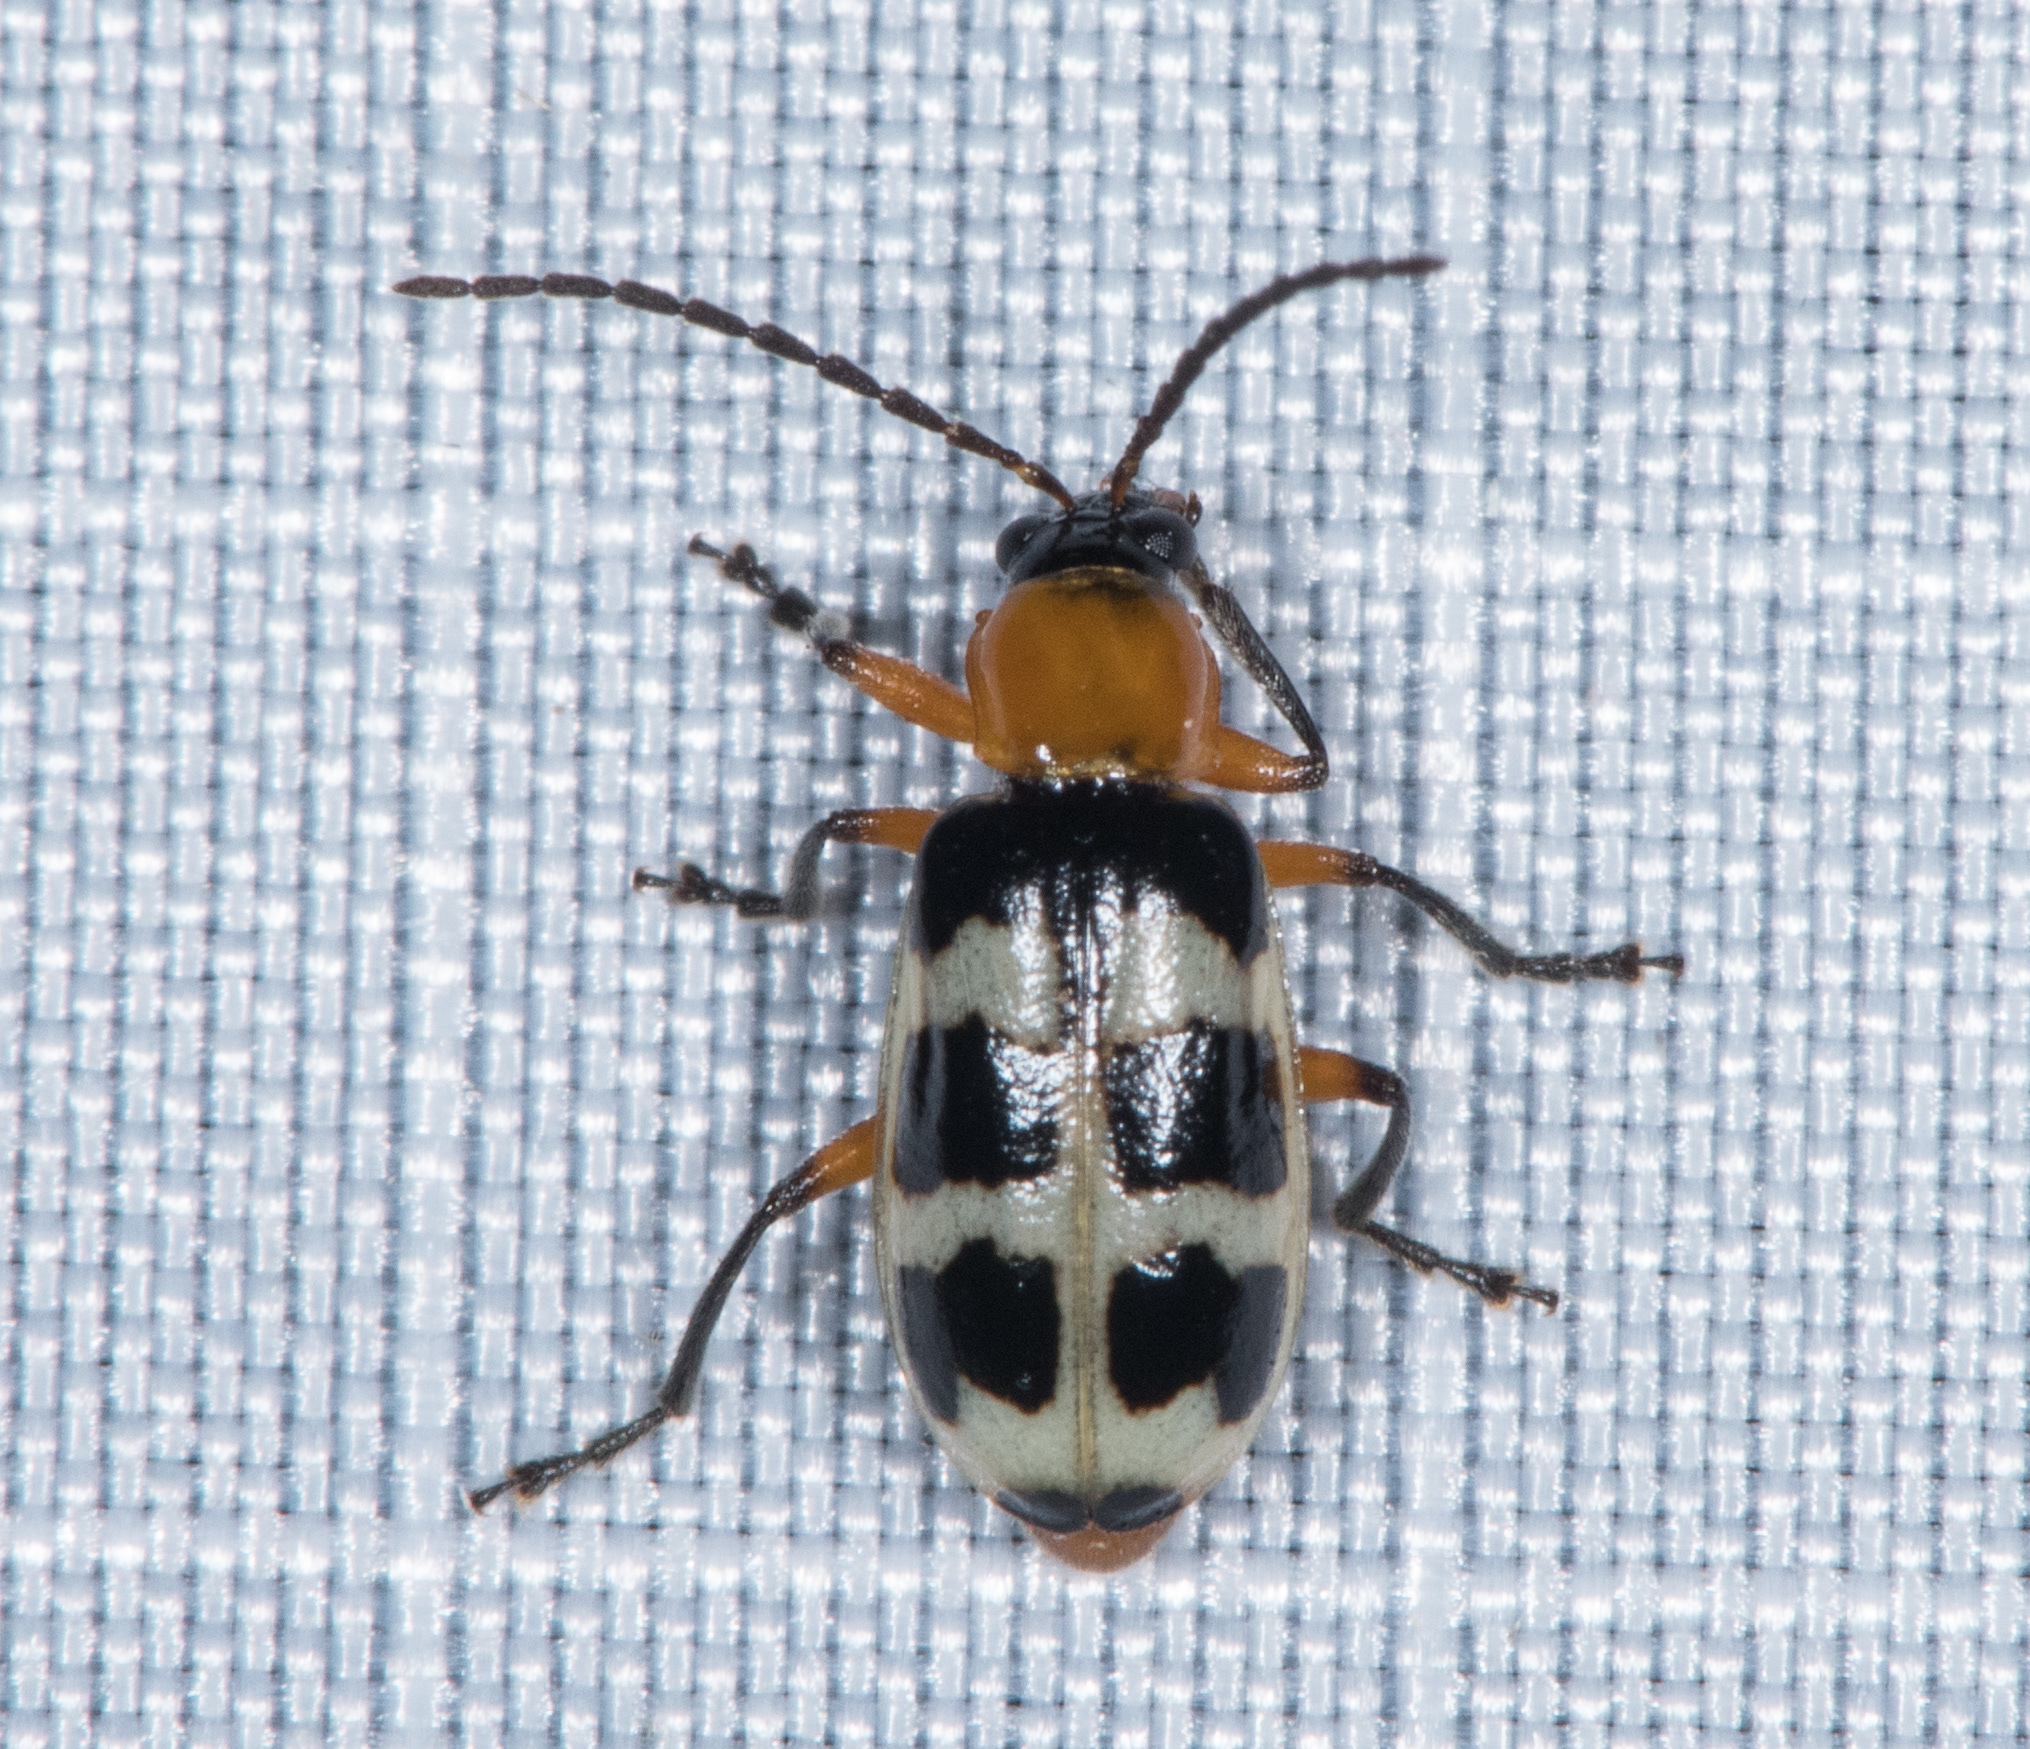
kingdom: Animalia
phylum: Arthropoda
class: Insecta
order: Coleoptera
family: Chrysomelidae
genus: Paranapiacaba
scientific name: Paranapiacaba tricincta
